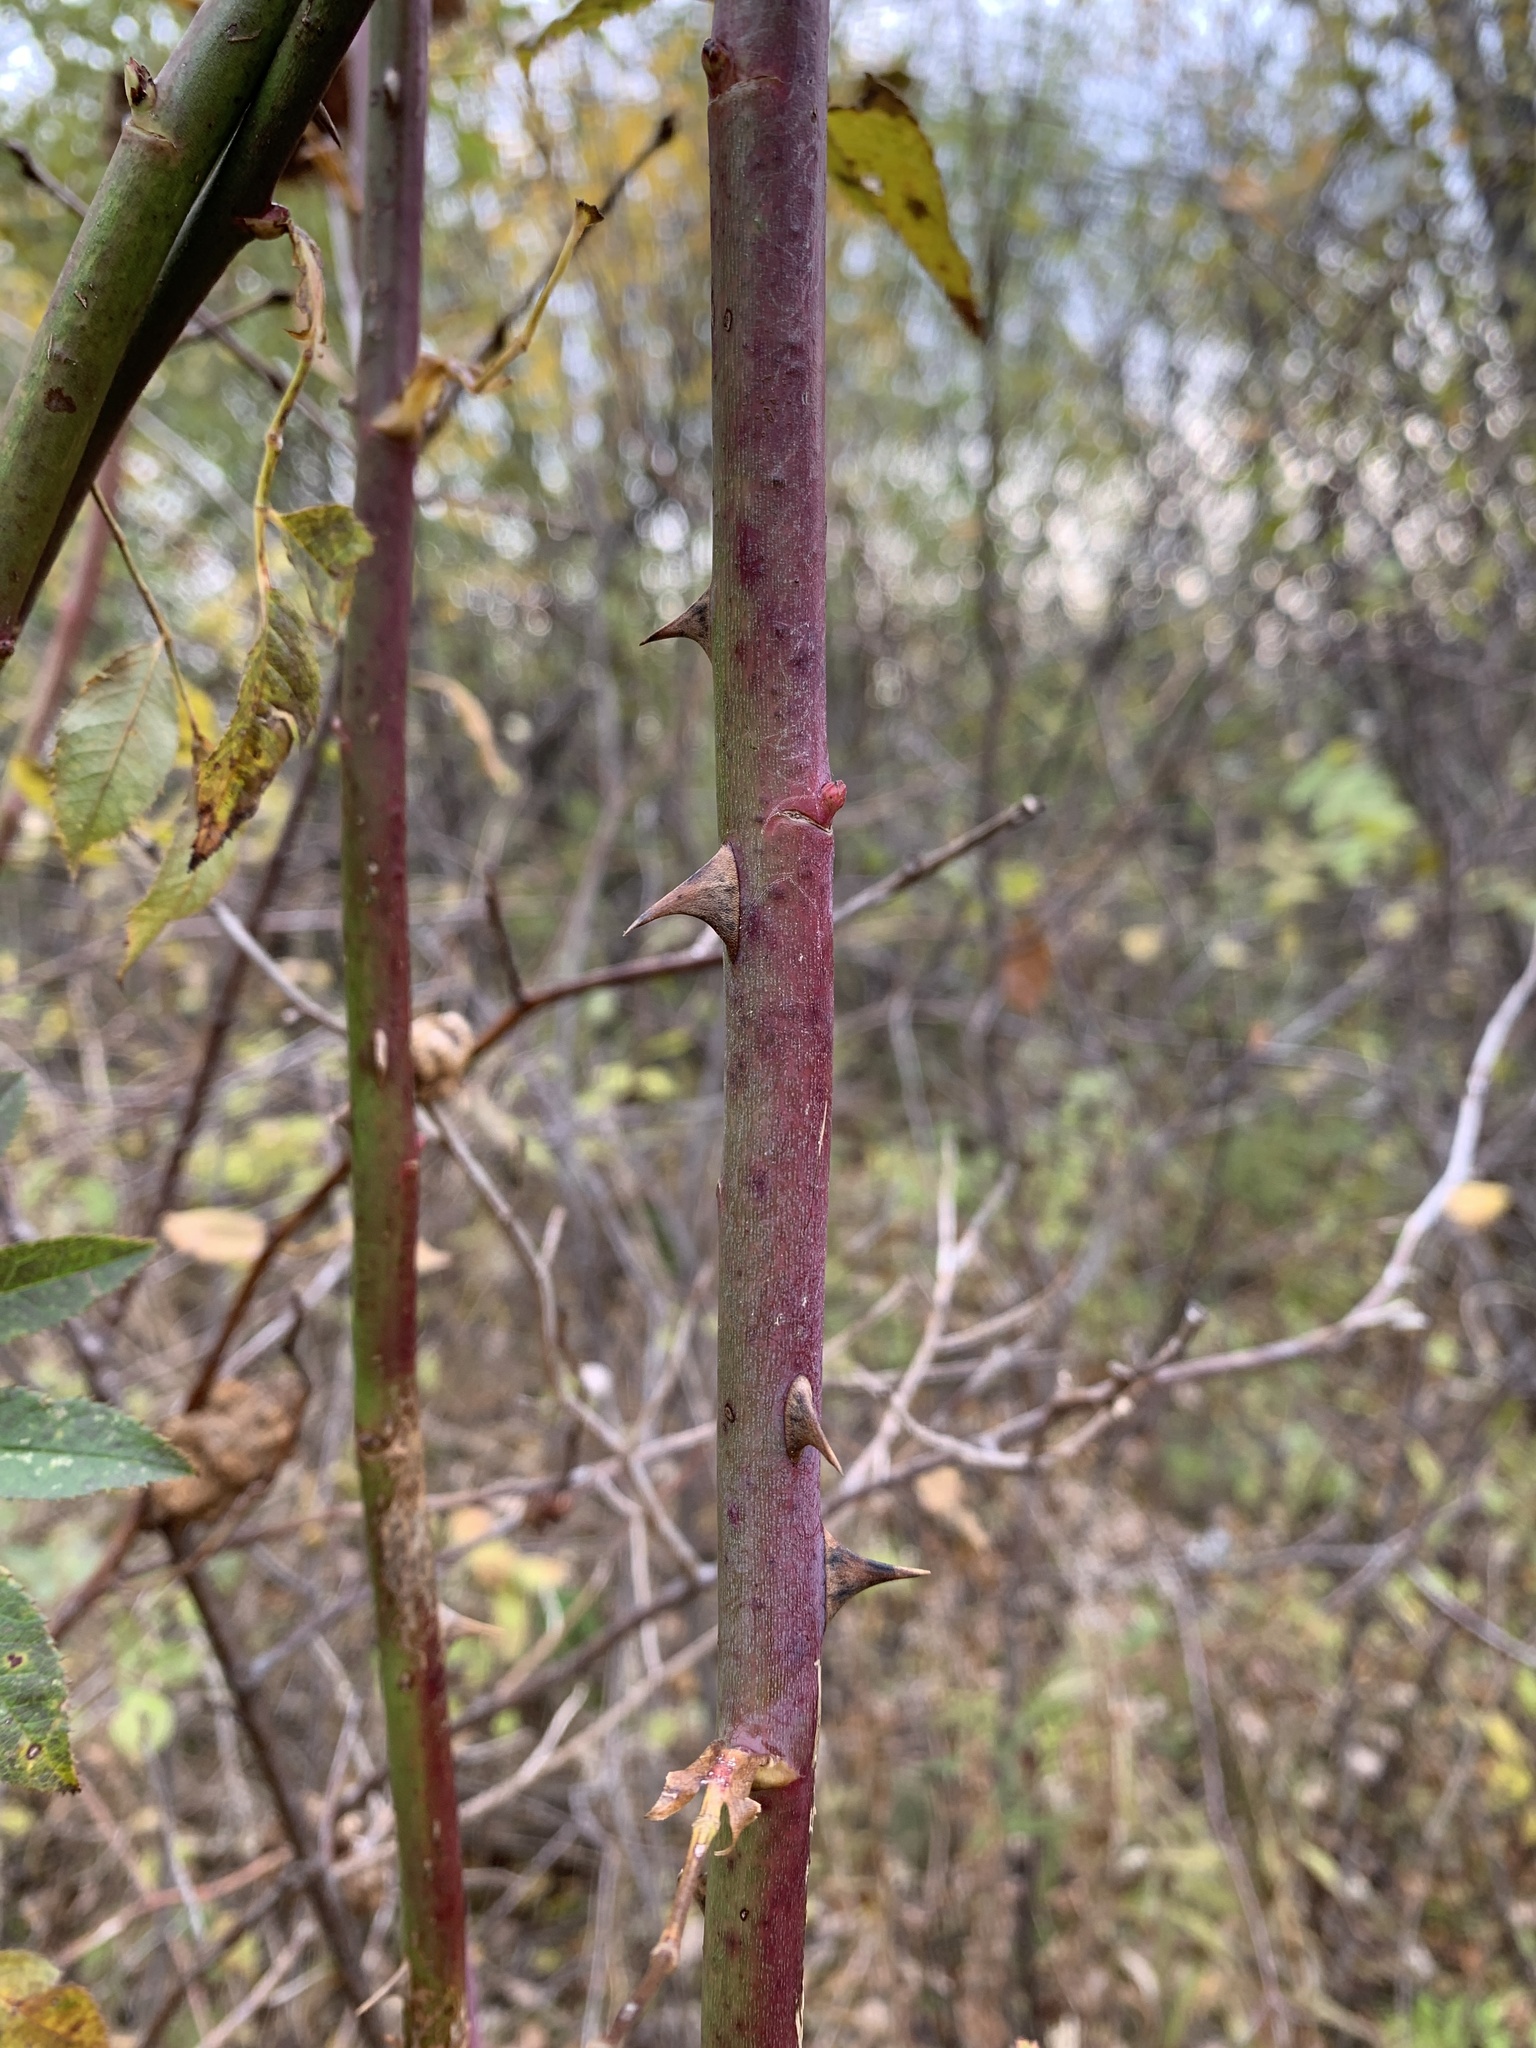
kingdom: Plantae
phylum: Tracheophyta
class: Magnoliopsida
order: Rosales
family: Rosaceae
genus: Rosa
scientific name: Rosa canina
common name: Dog rose
